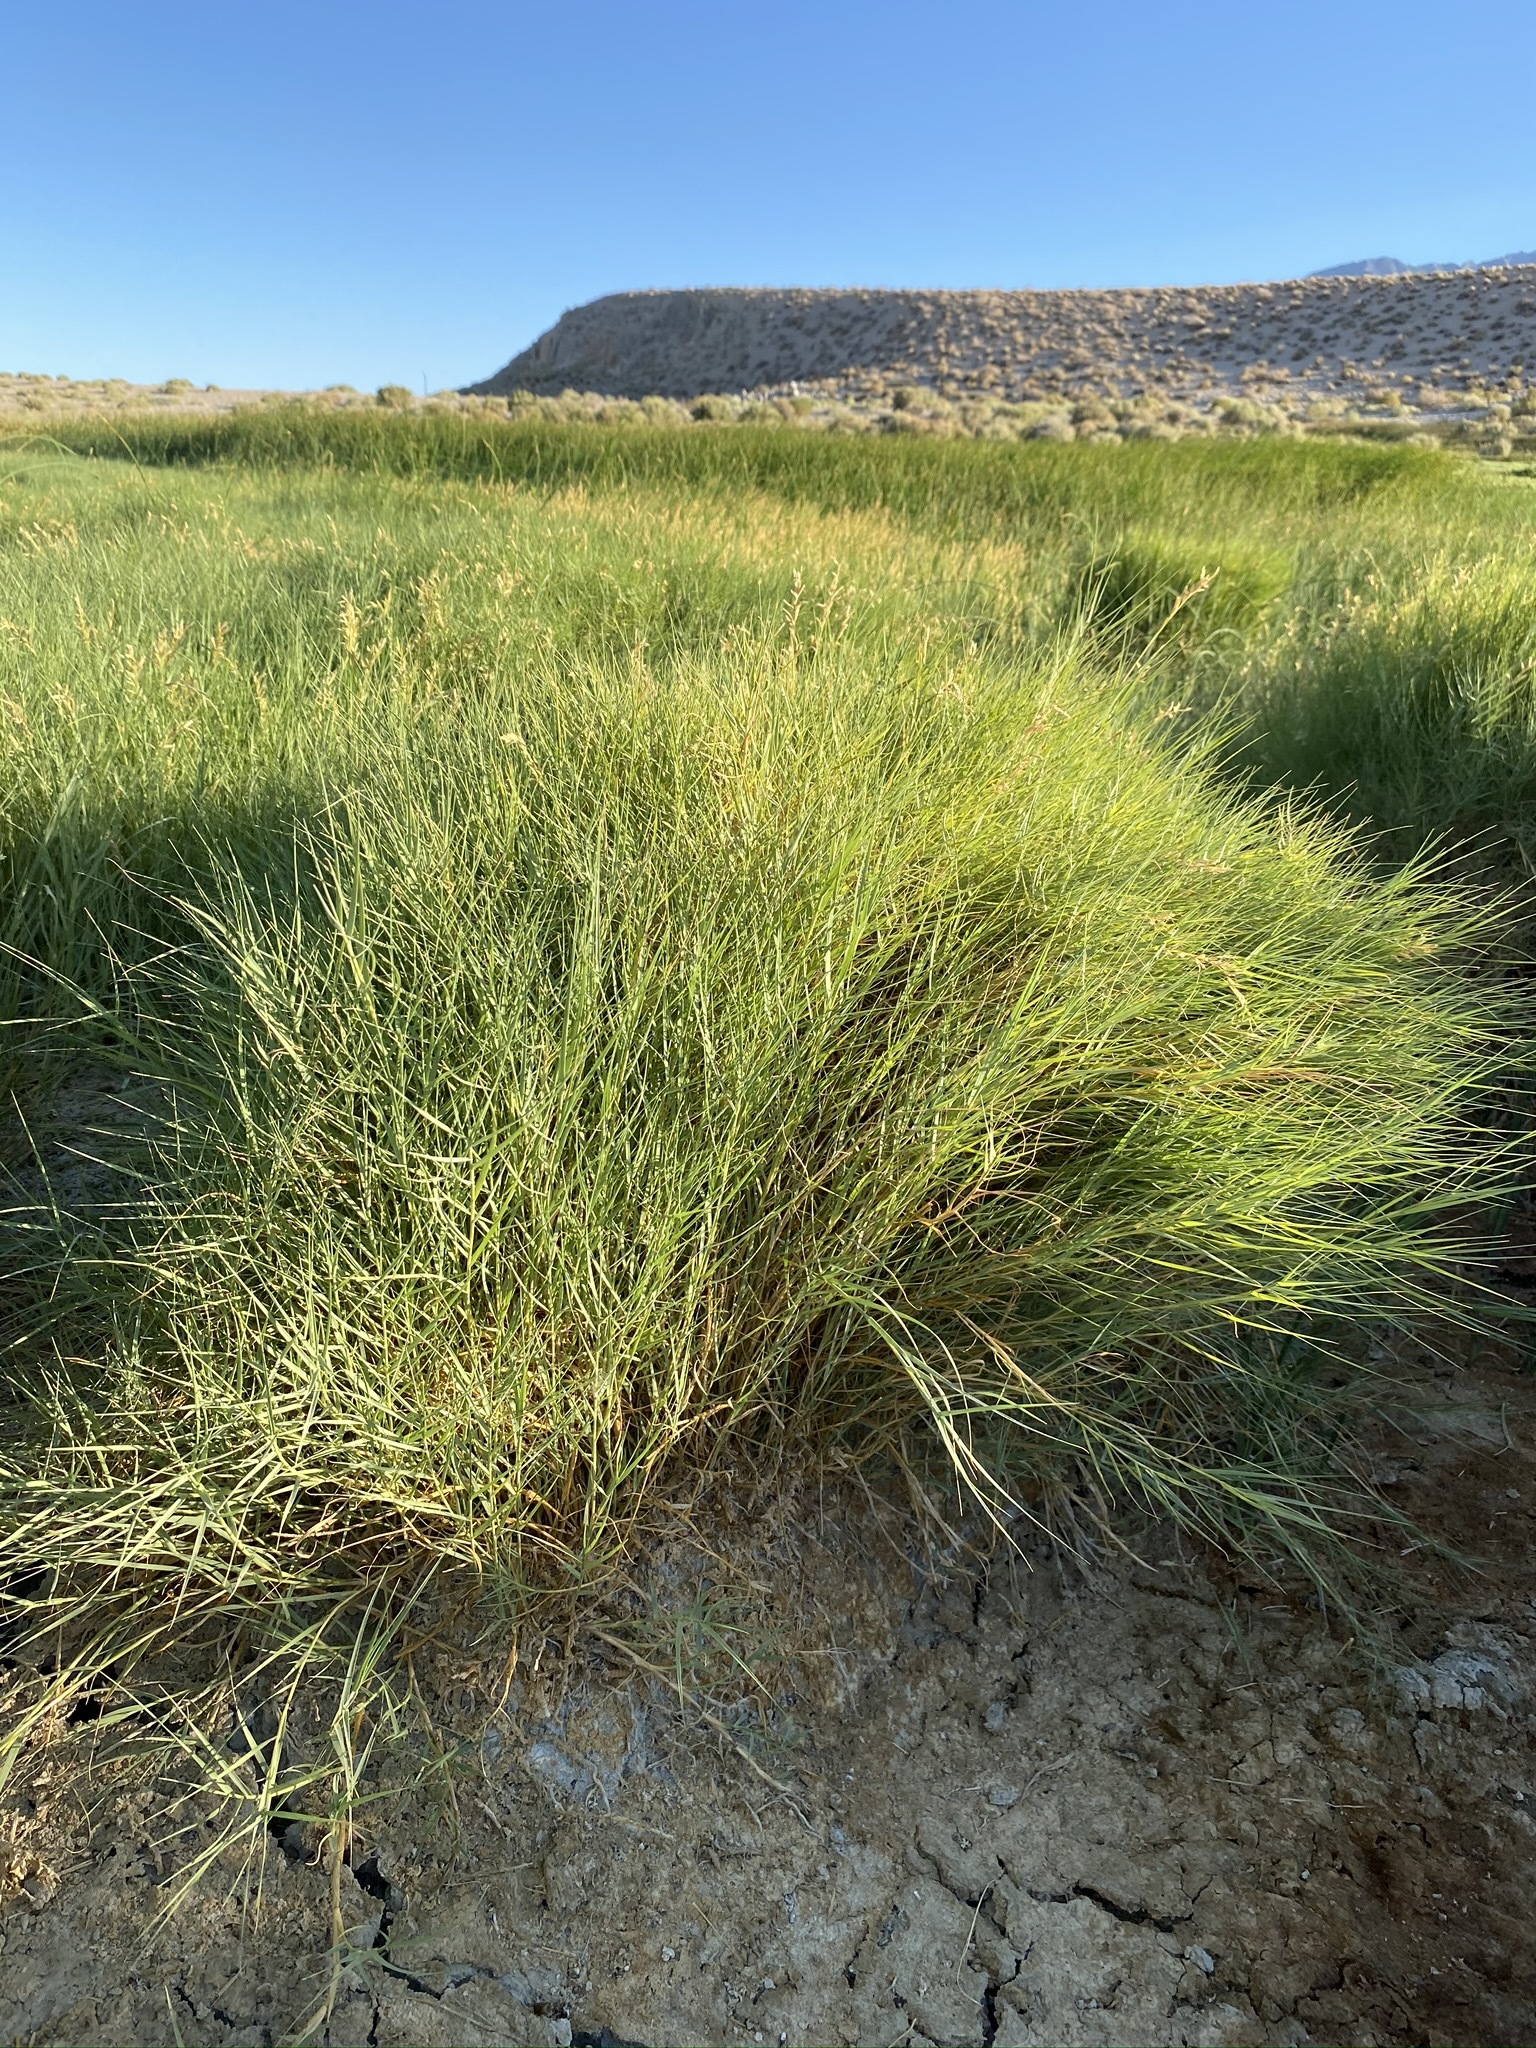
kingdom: Plantae
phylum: Tracheophyta
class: Liliopsida
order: Poales
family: Poaceae
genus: Distichlis
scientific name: Distichlis spicata
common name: Saltgrass
